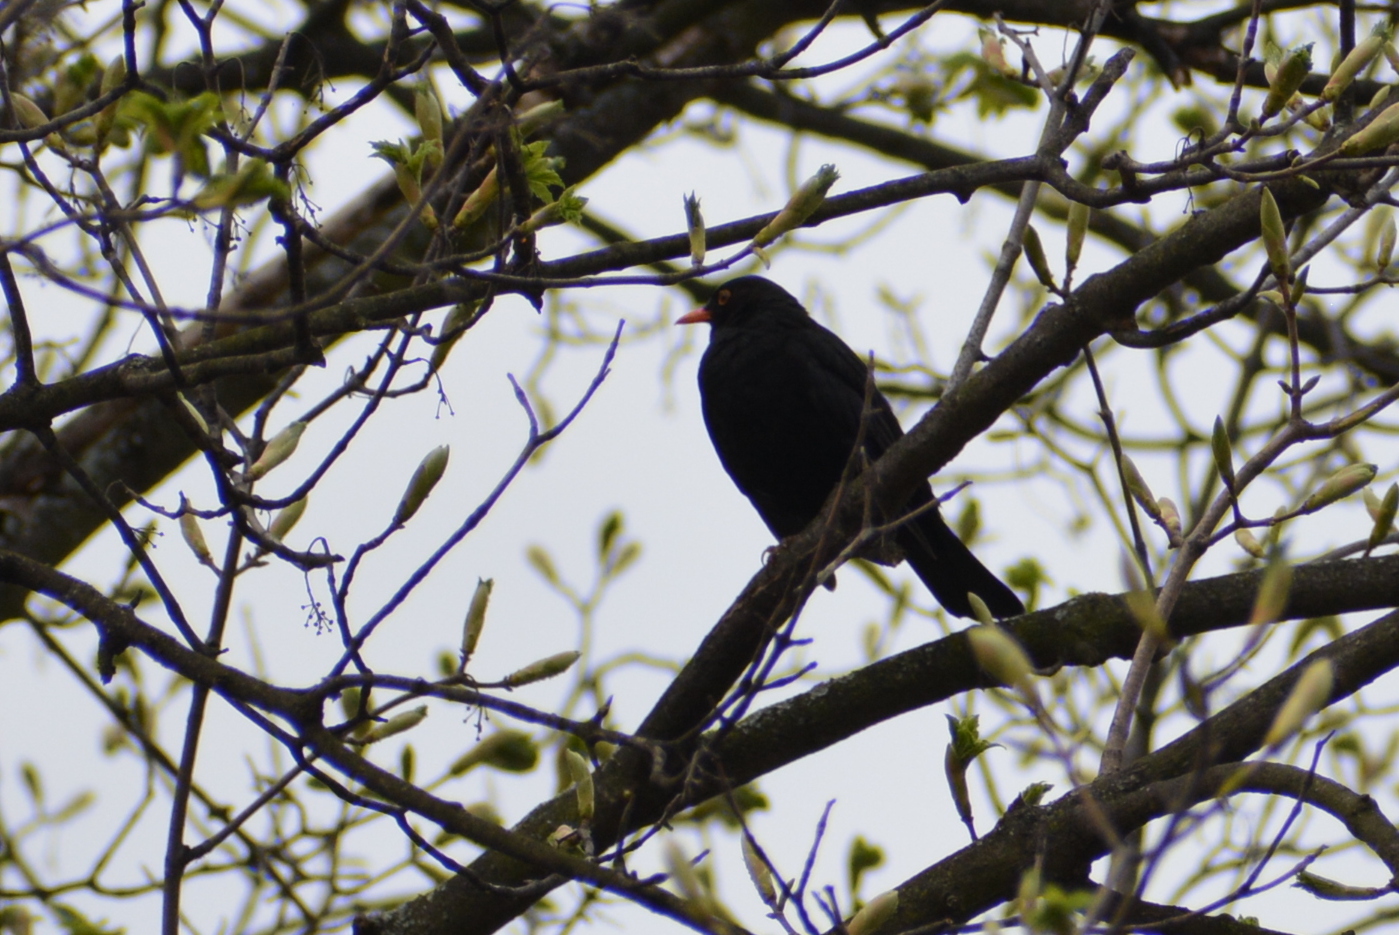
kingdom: Animalia
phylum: Chordata
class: Aves
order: Passeriformes
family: Turdidae
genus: Turdus
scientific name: Turdus merula
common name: Common blackbird
